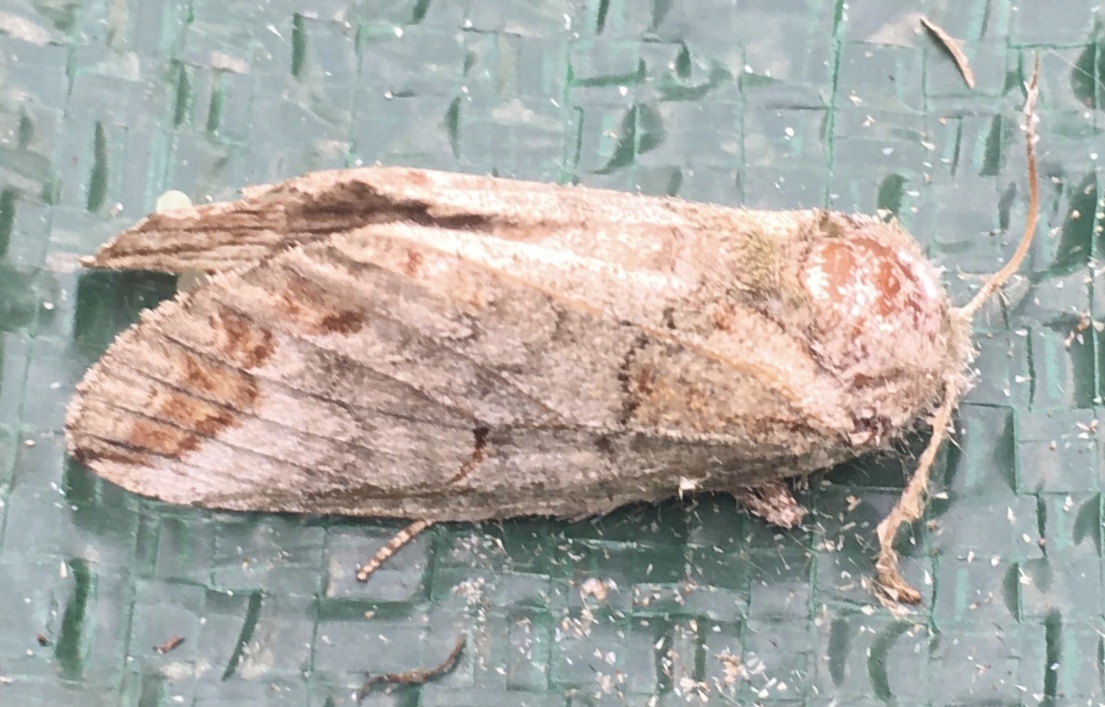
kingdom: Animalia
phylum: Arthropoda
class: Insecta
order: Lepidoptera
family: Notodontidae
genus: Heterocampa
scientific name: Heterocampa astarte
